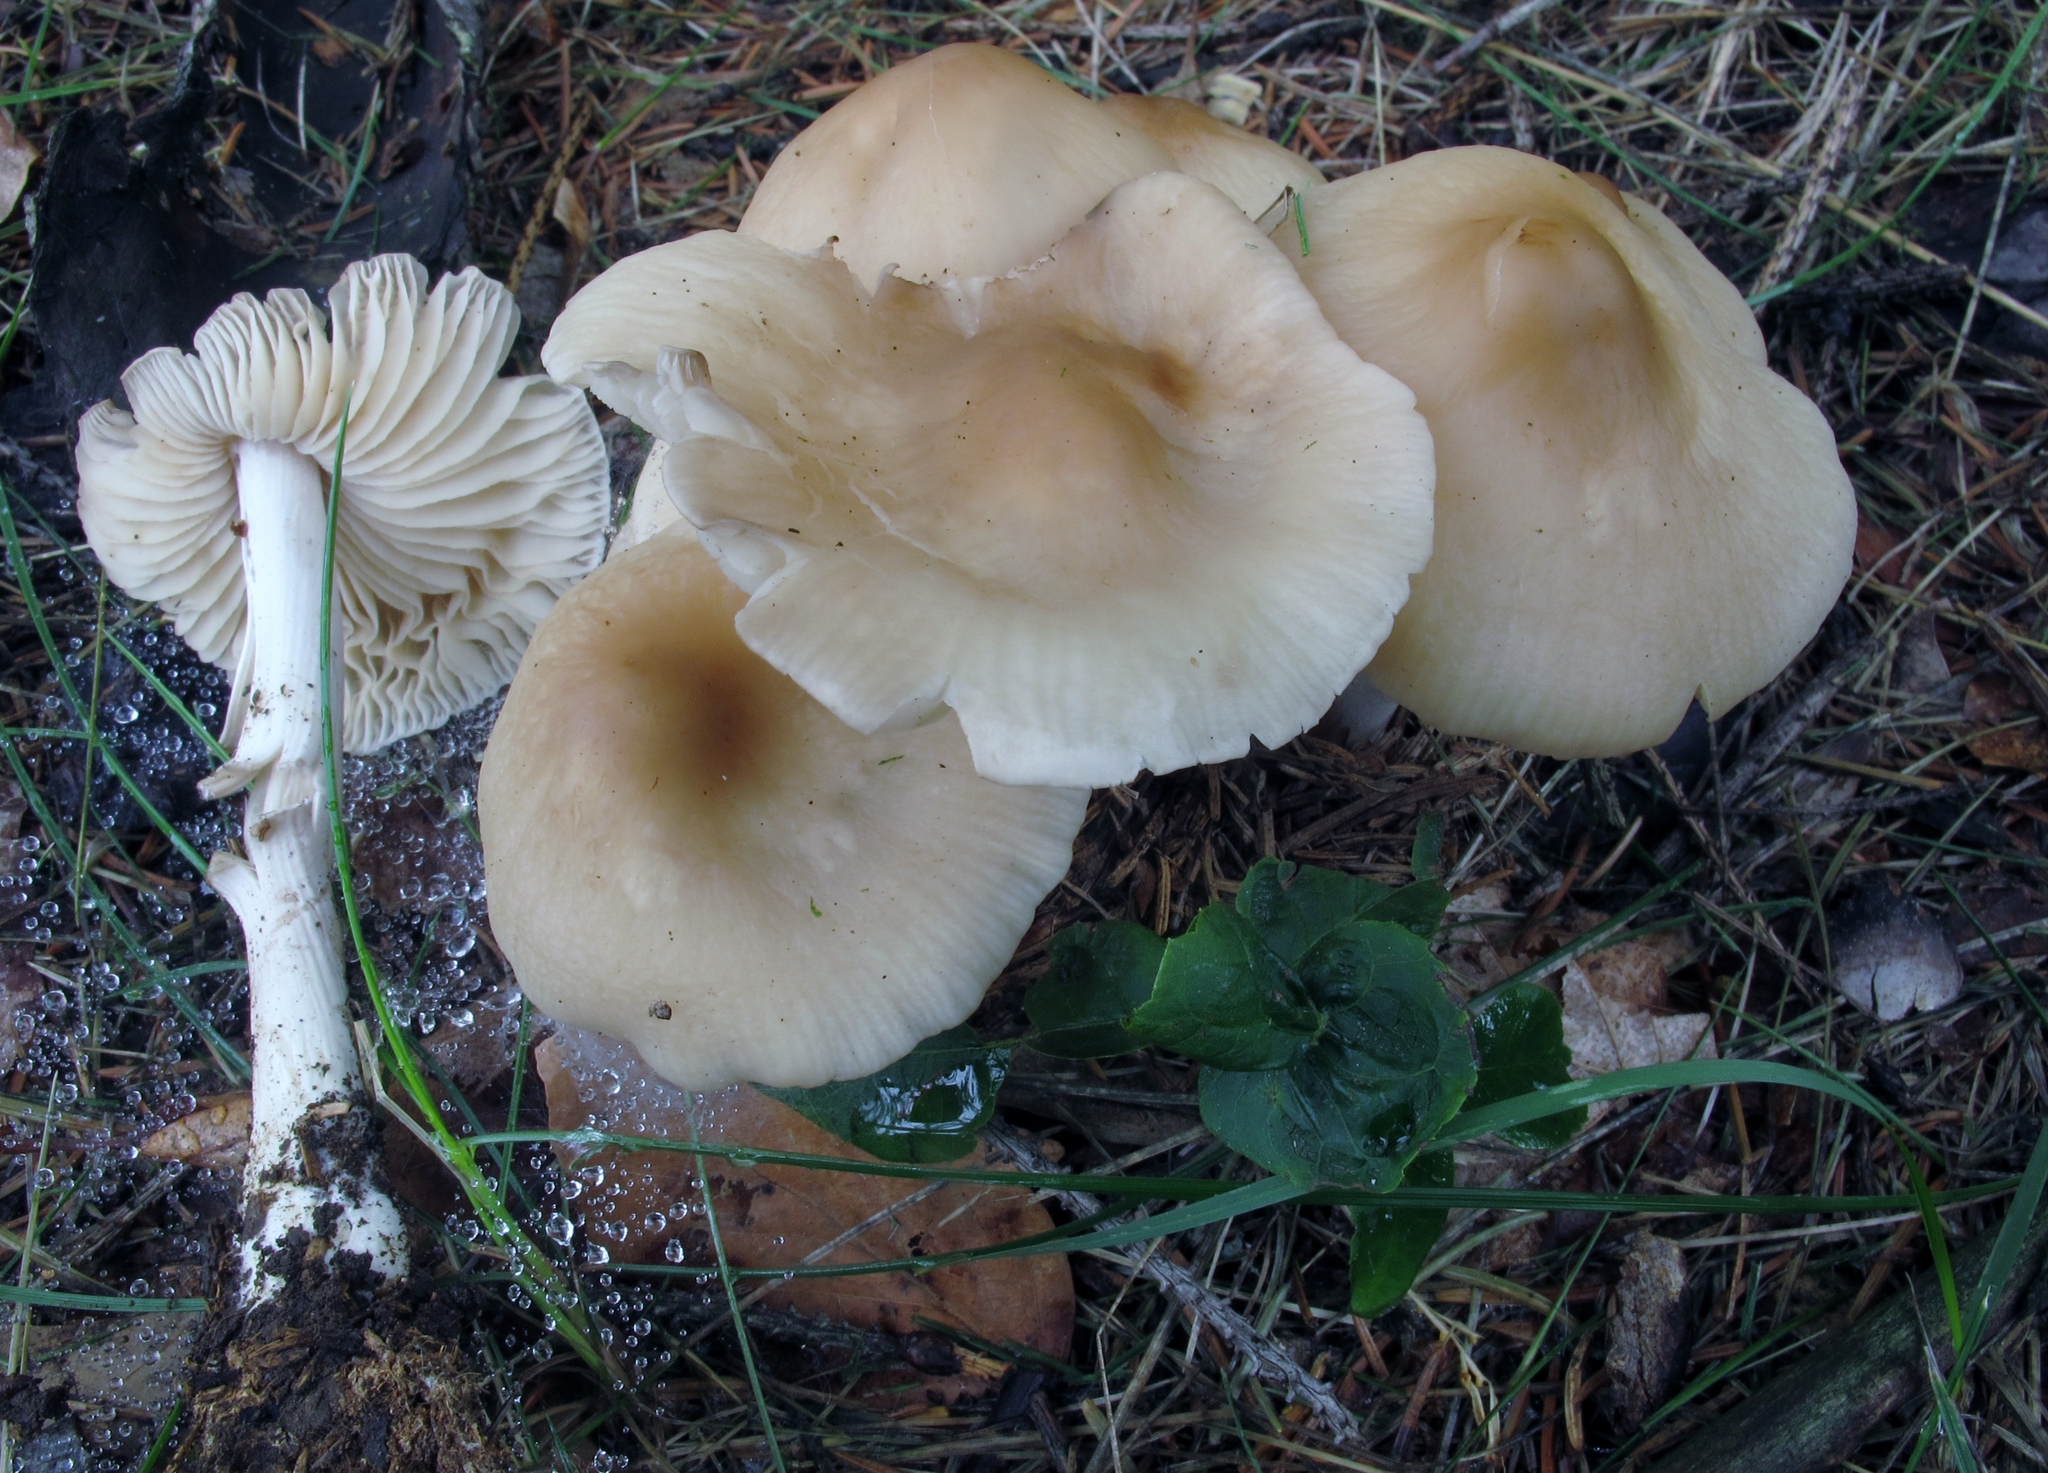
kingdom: Fungi
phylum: Basidiomycota
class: Agaricomycetes
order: Agaricales
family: Marasmiaceae
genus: Marasmius
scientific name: Marasmius nigrodiscus
